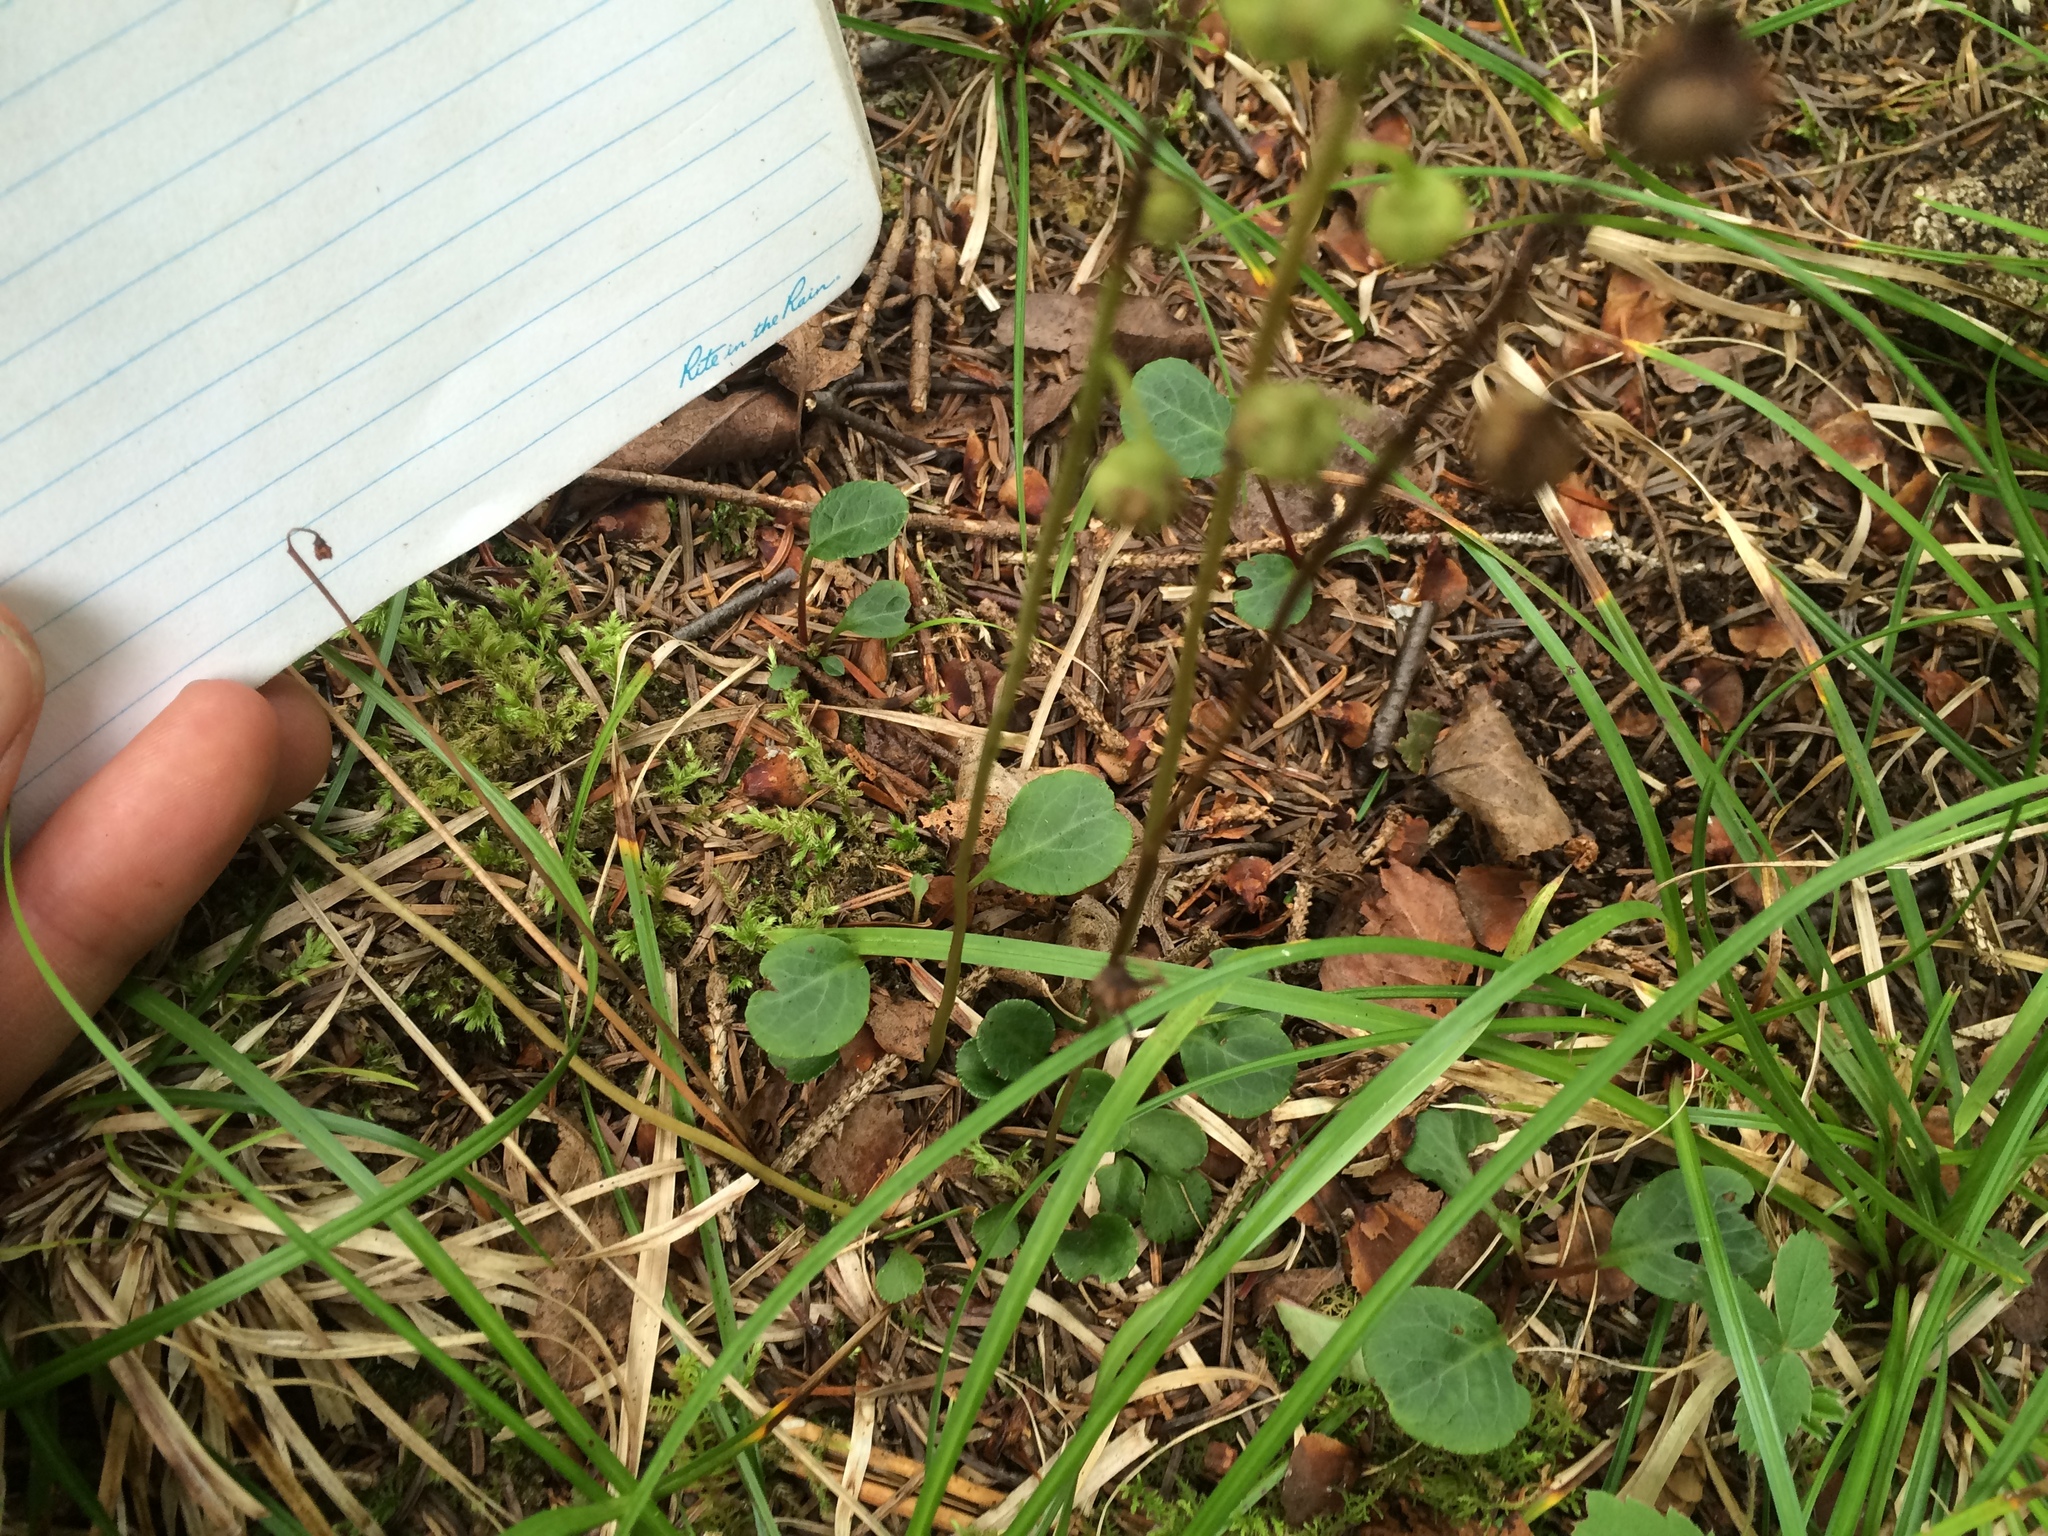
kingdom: Plantae
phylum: Tracheophyta
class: Magnoliopsida
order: Ericales
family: Ericaceae
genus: Pyrola
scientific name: Pyrola chlorantha
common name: Green wintergreen
